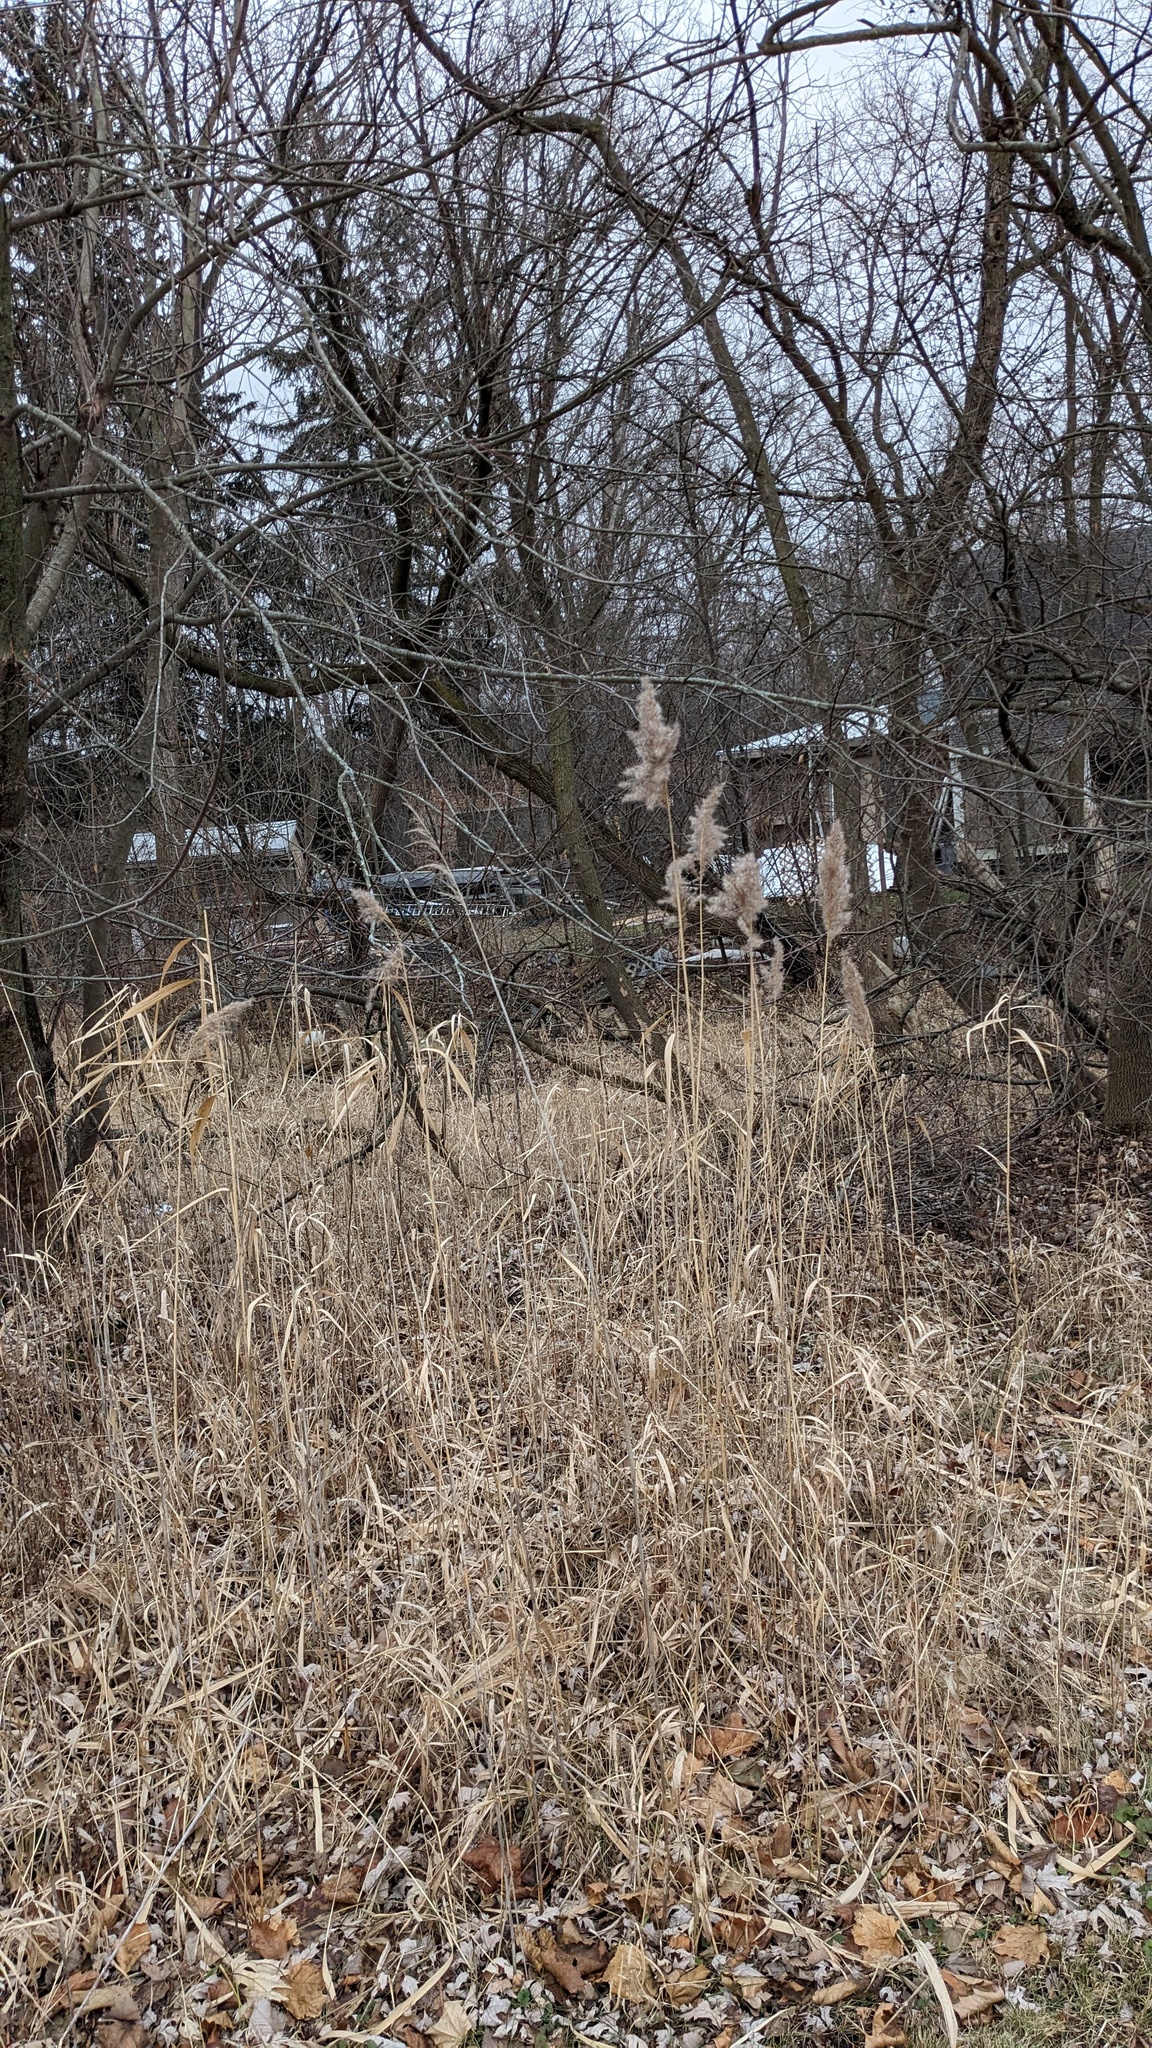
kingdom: Plantae
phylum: Tracheophyta
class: Liliopsida
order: Poales
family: Poaceae
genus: Phragmites
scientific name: Phragmites australis
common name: Common reed
